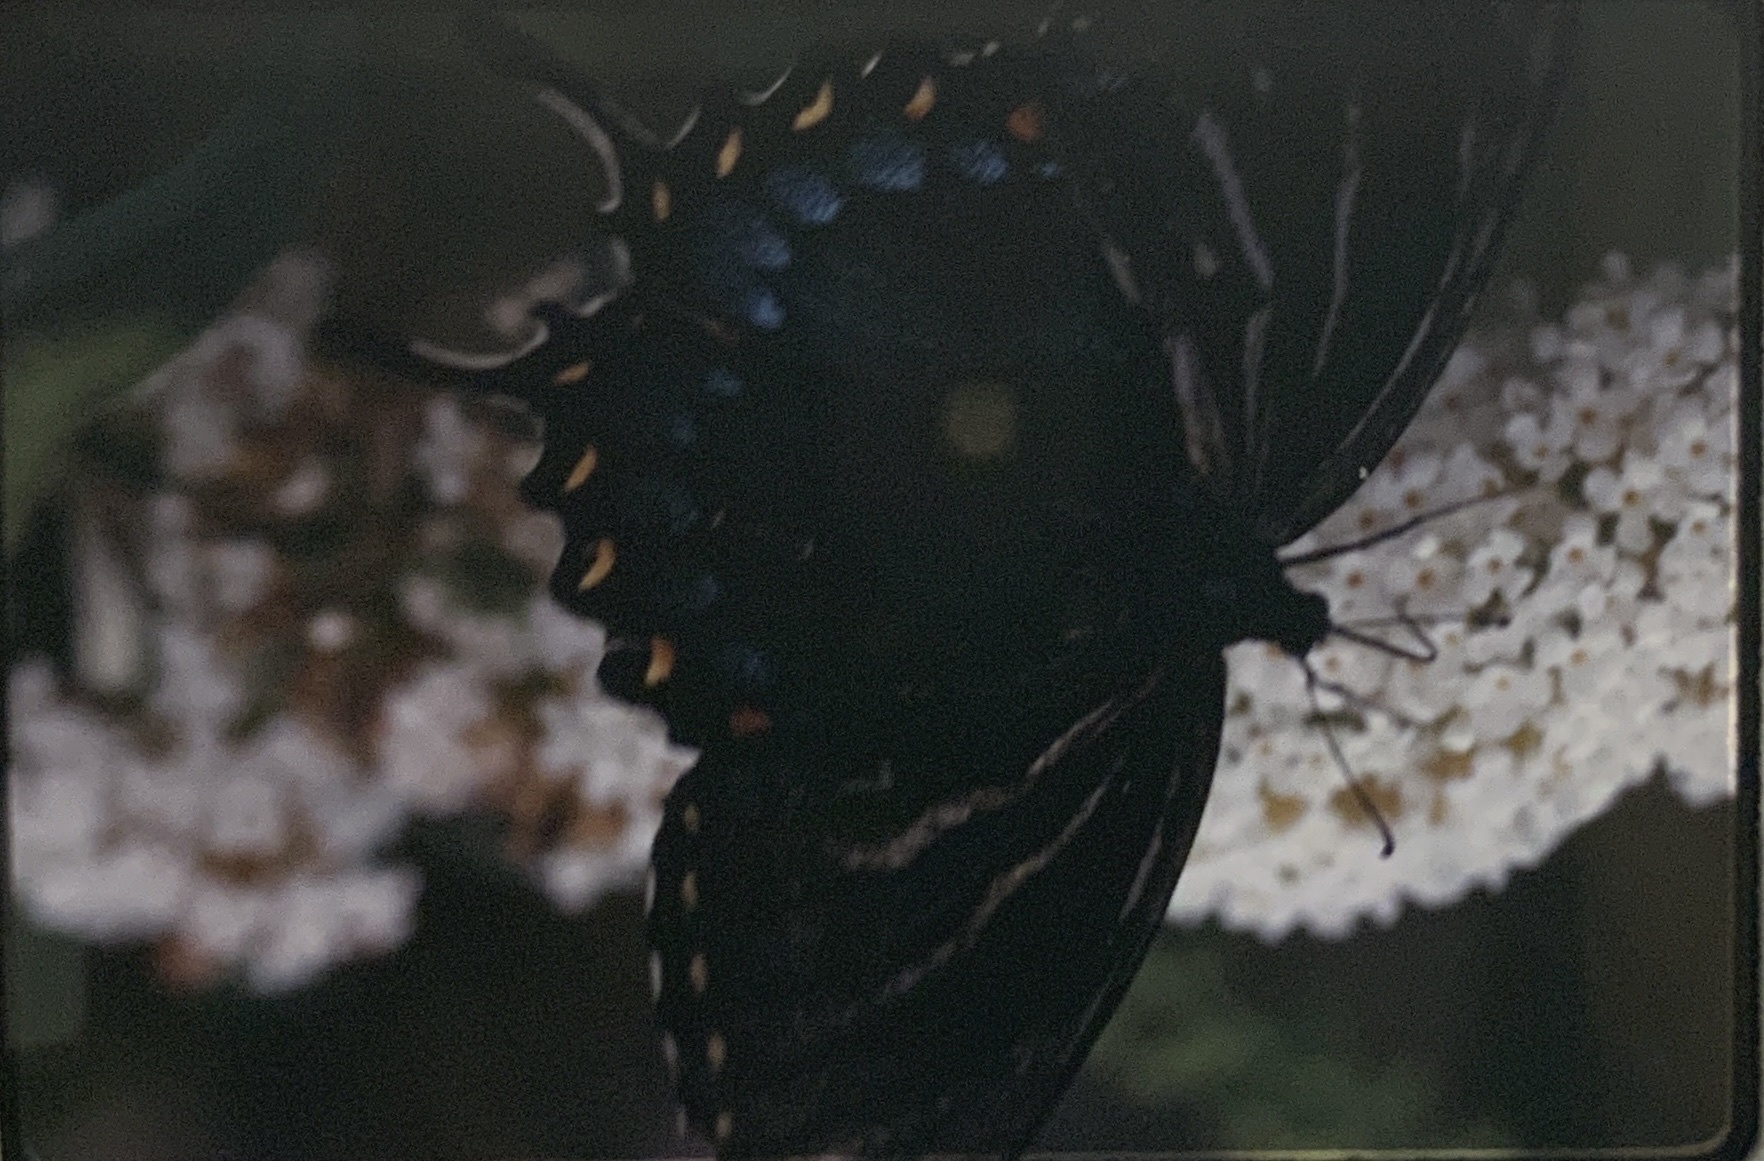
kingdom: Animalia
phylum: Arthropoda
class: Insecta
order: Lepidoptera
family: Papilionidae
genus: Papilio
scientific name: Papilio glaucus
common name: Tiger swallowtail
